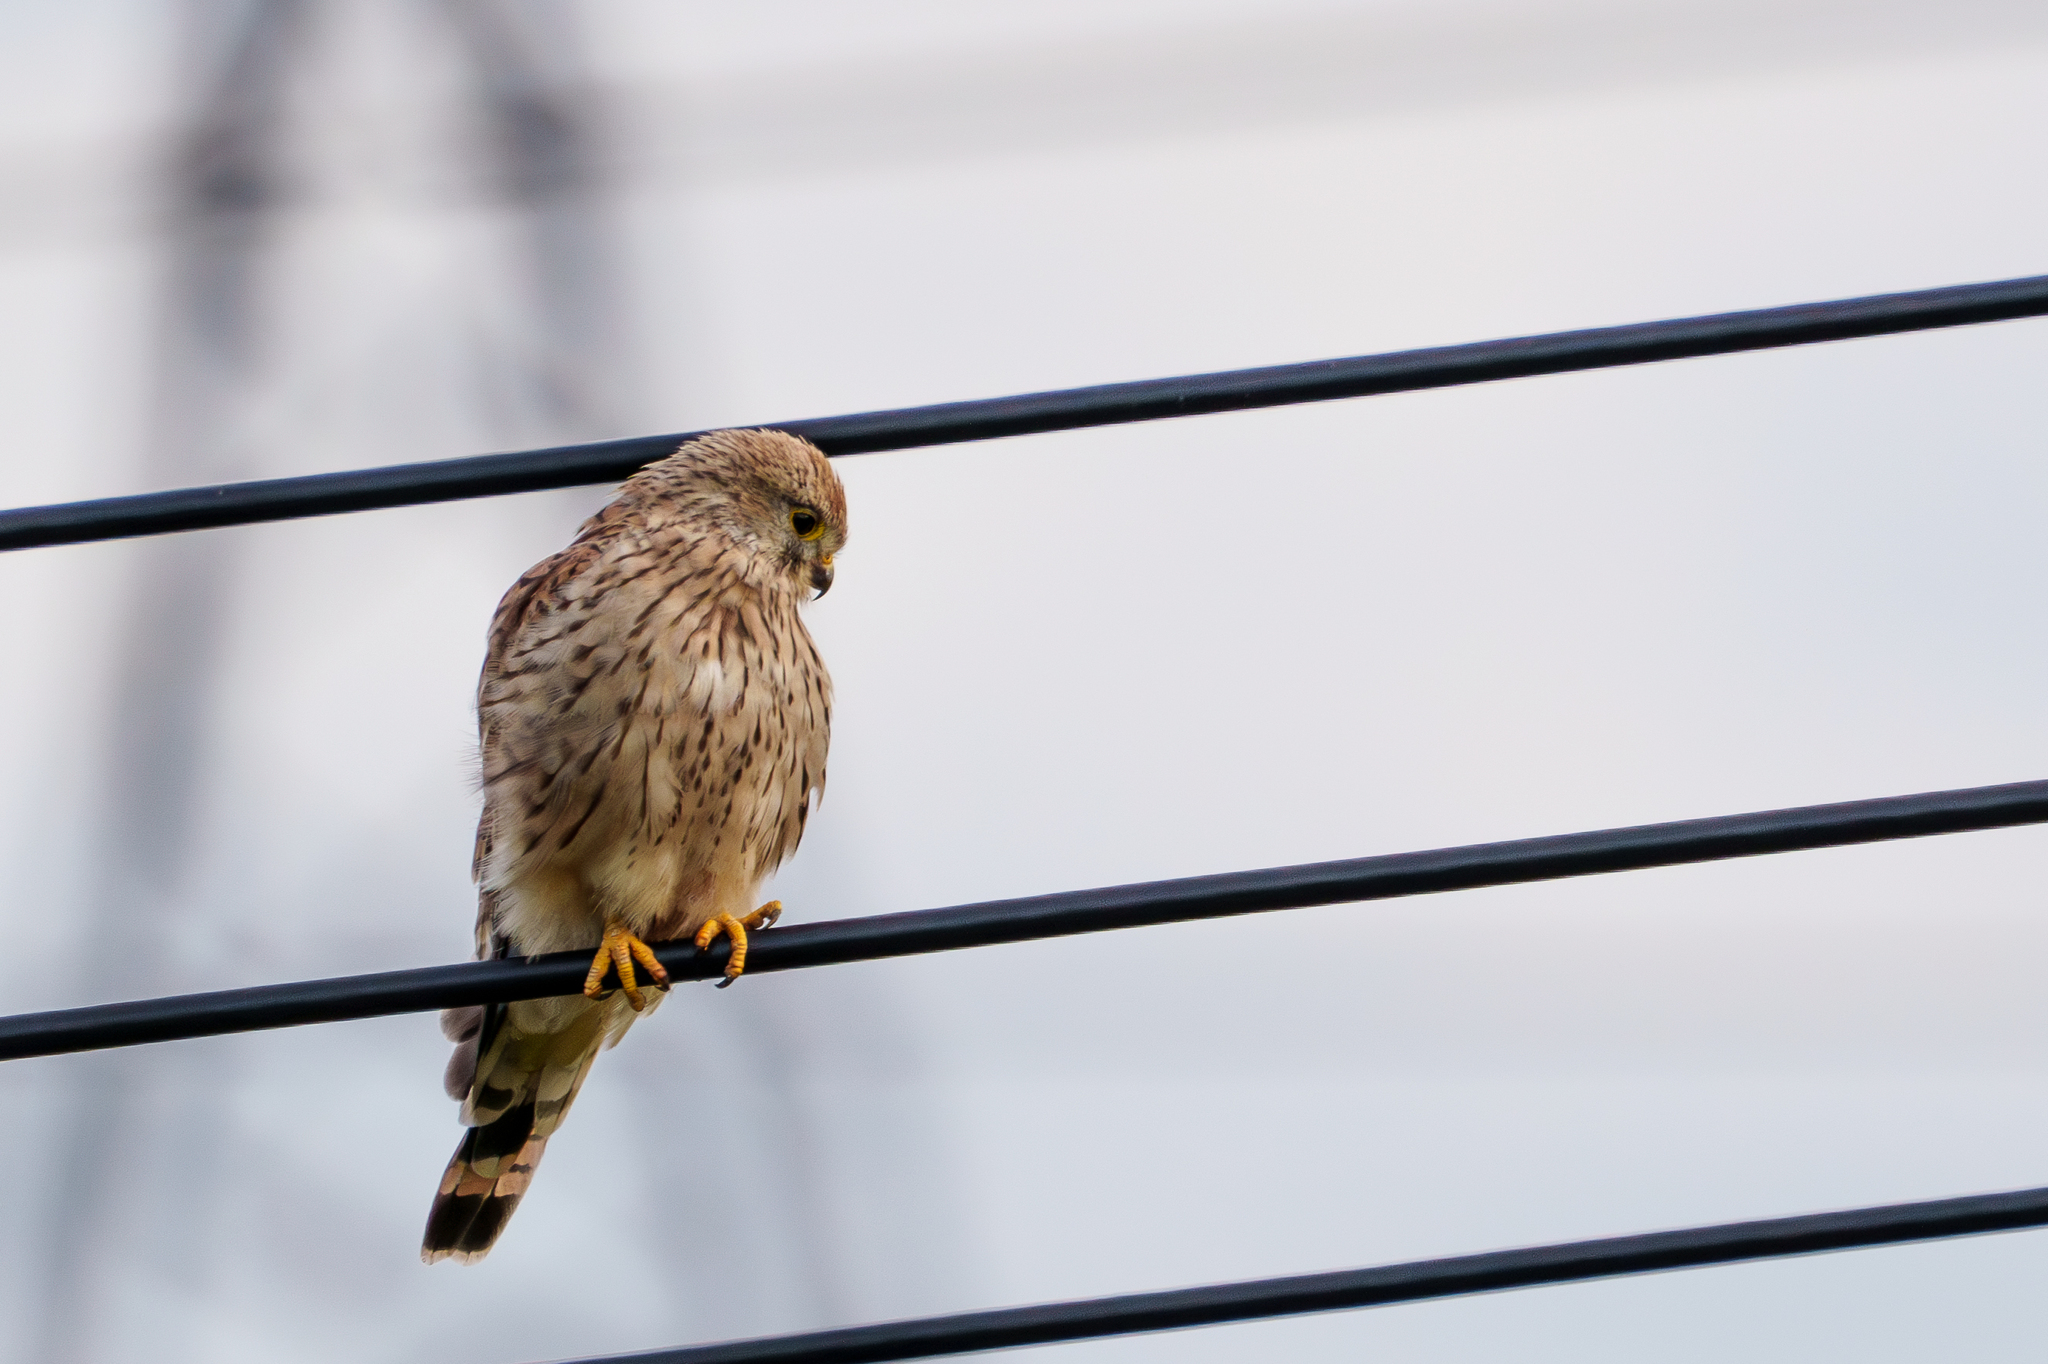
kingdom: Animalia
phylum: Chordata
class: Aves
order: Falconiformes
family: Falconidae
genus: Falco
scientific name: Falco tinnunculus
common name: Common kestrel
